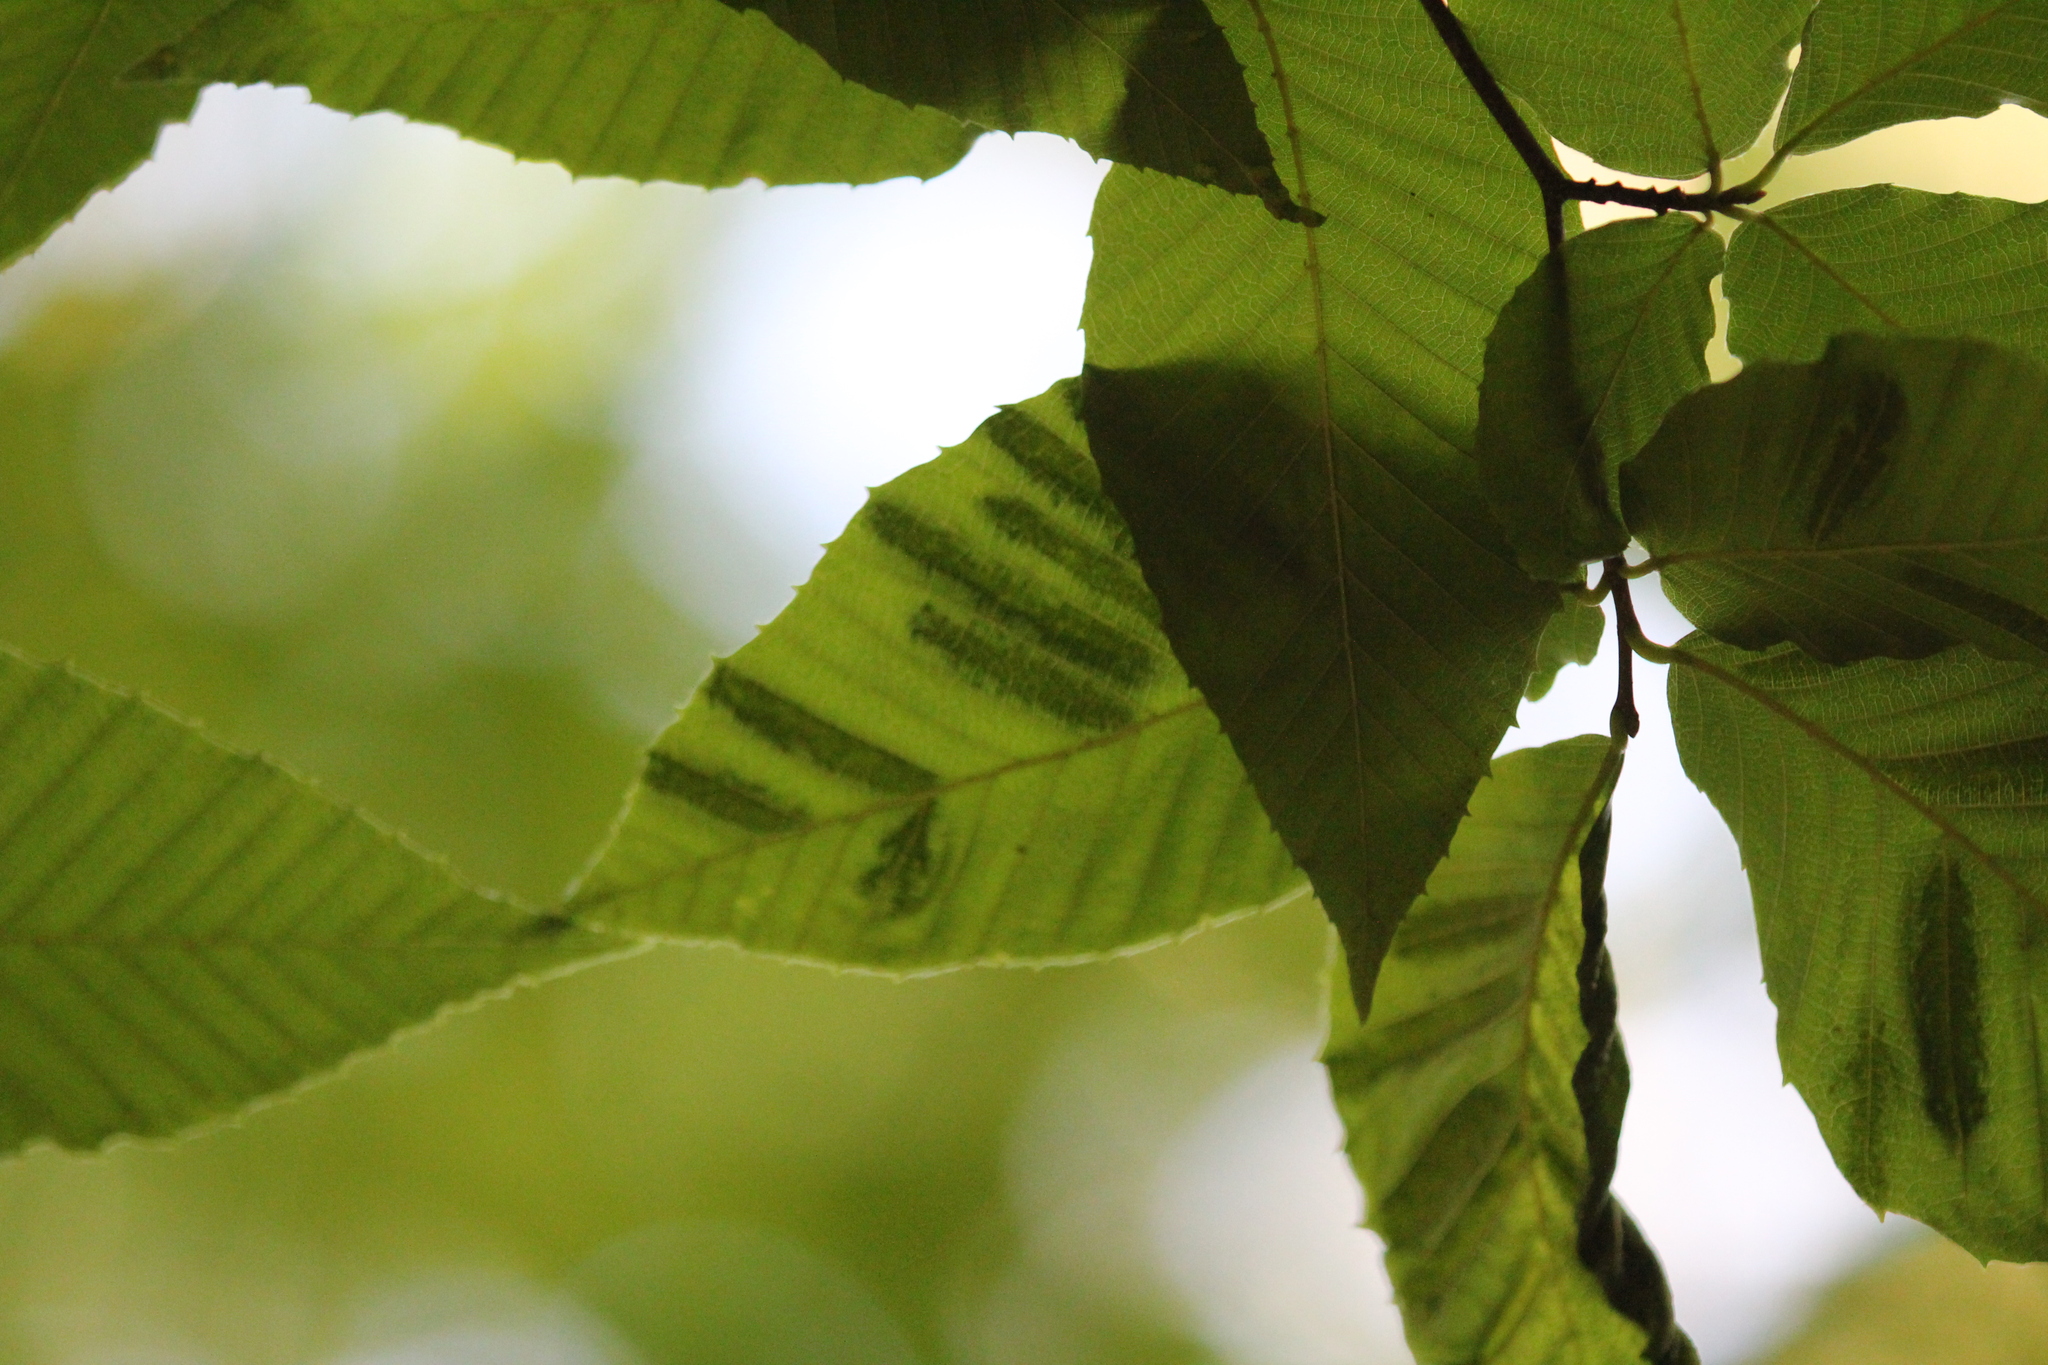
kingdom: Animalia
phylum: Nematoda
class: Chromadorea
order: Rhabditida
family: Anguinidae
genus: Litylenchus
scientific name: Litylenchus crenatae
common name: Beech leaf disease
